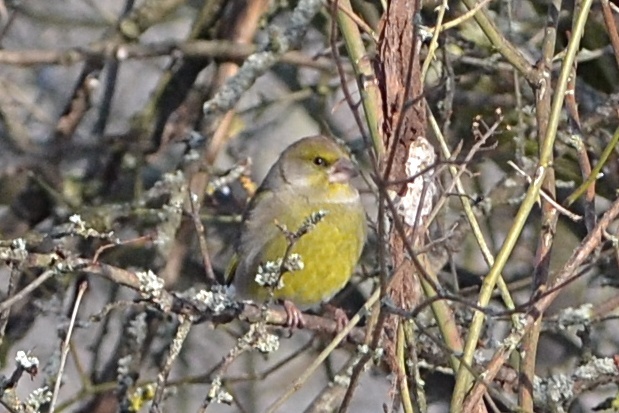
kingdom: Plantae
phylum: Tracheophyta
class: Liliopsida
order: Poales
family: Poaceae
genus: Chloris
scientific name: Chloris chloris
